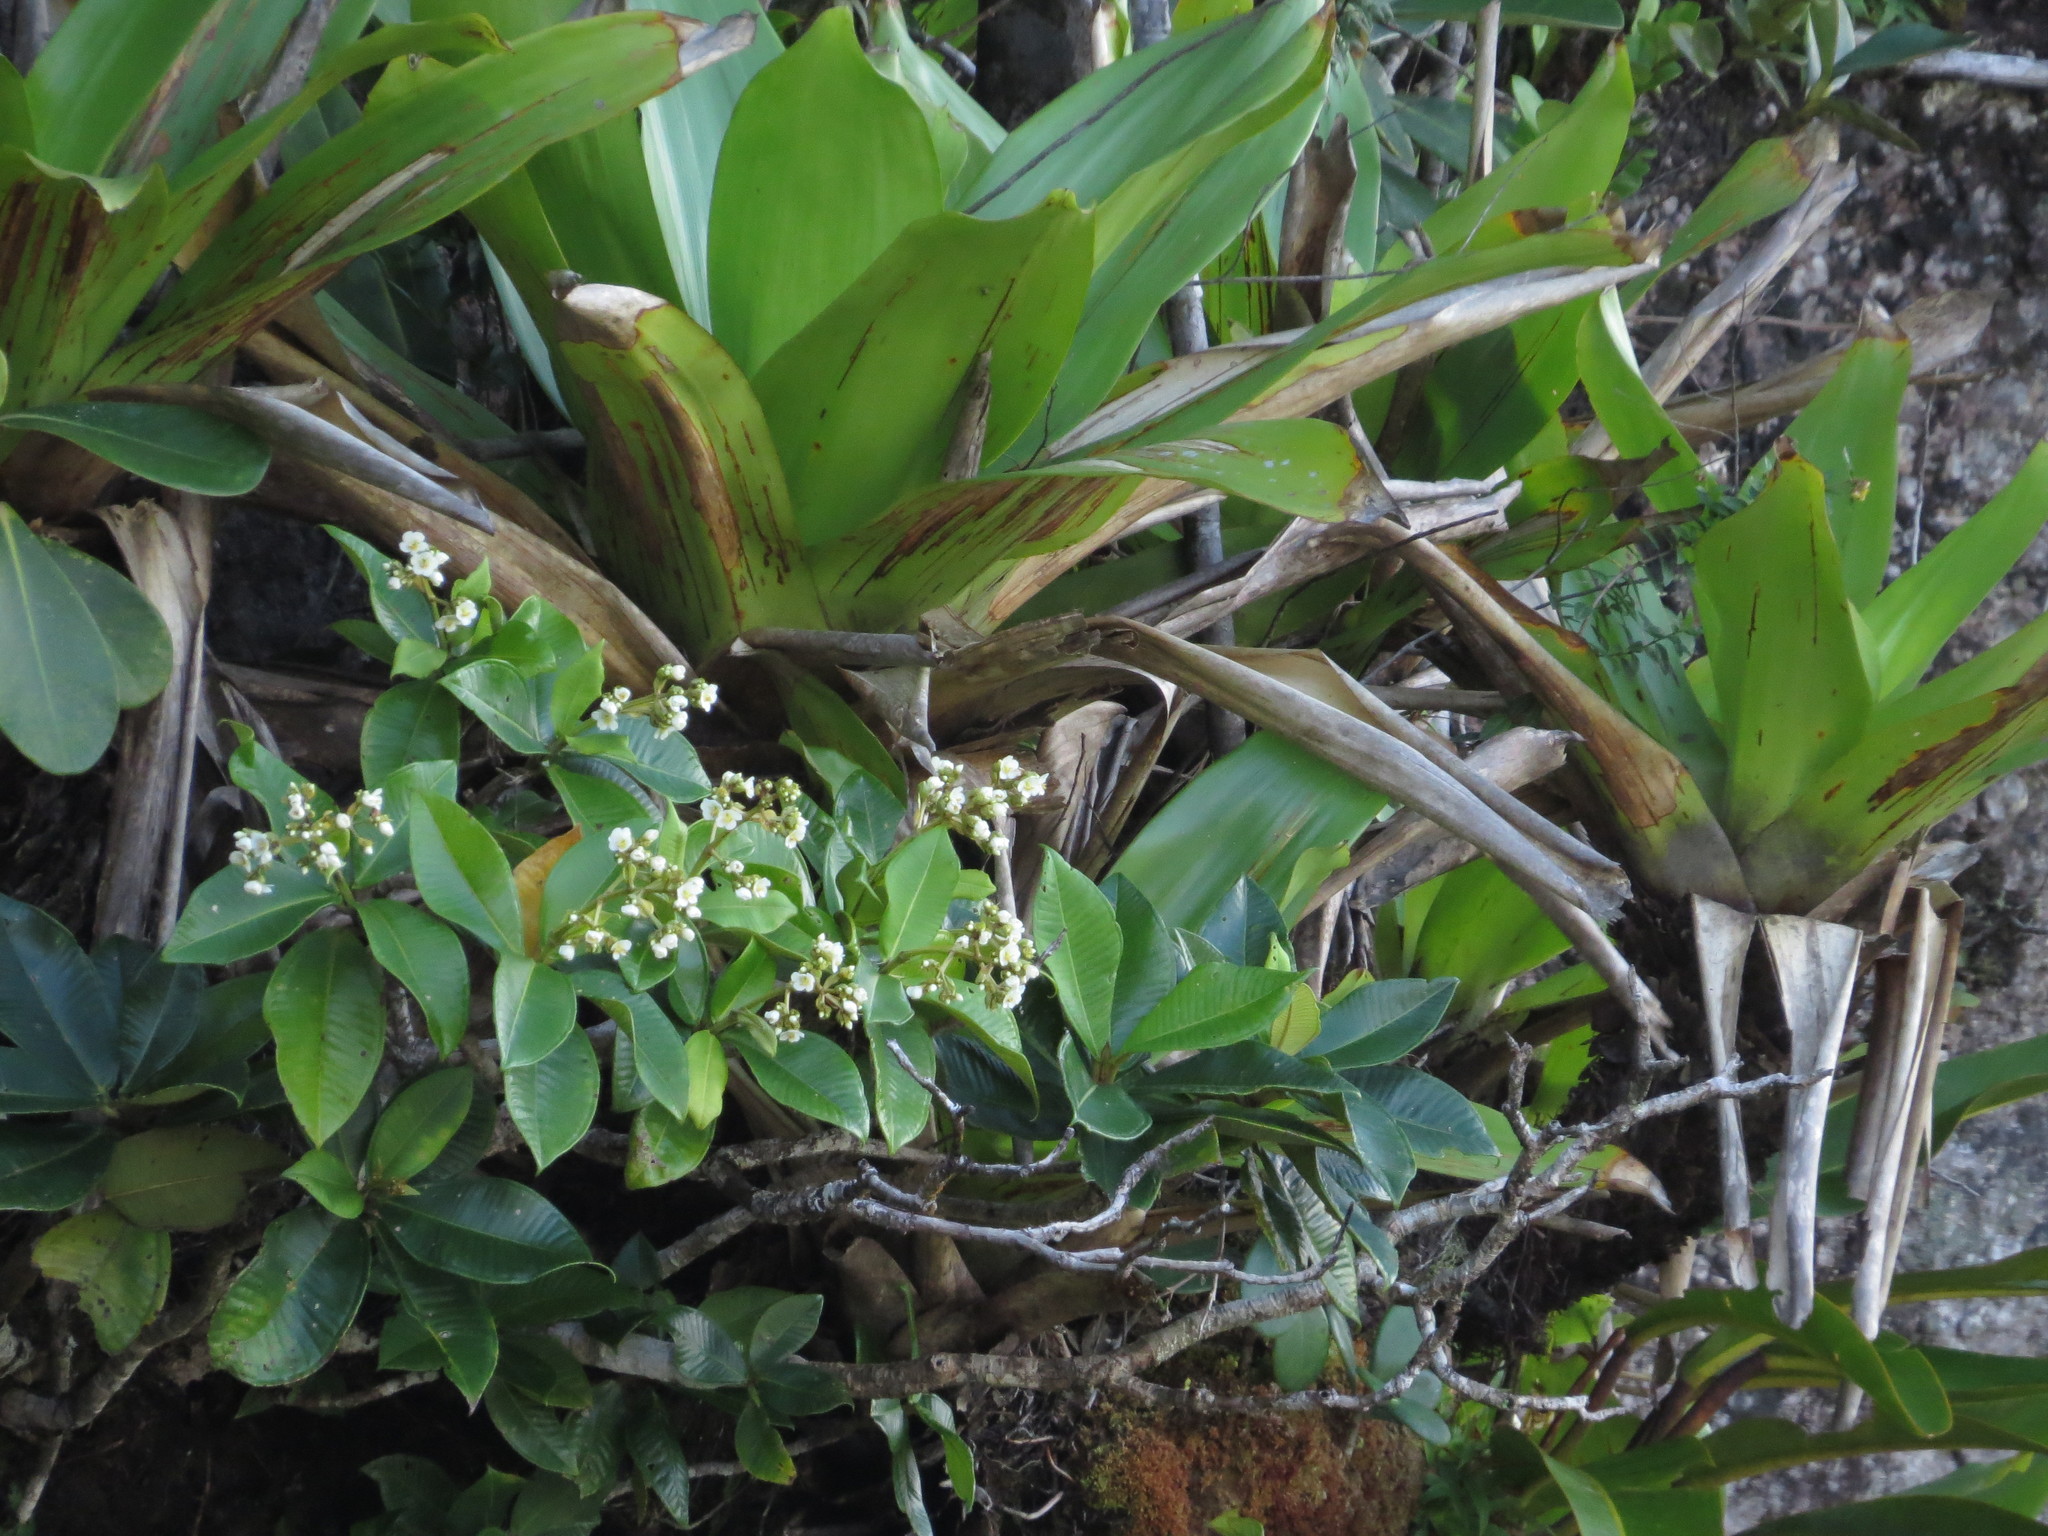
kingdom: Plantae
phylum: Tracheophyta
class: Magnoliopsida
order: Myrtales
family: Melastomataceae
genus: Graffenrieda
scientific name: Graffenrieda irwinii
